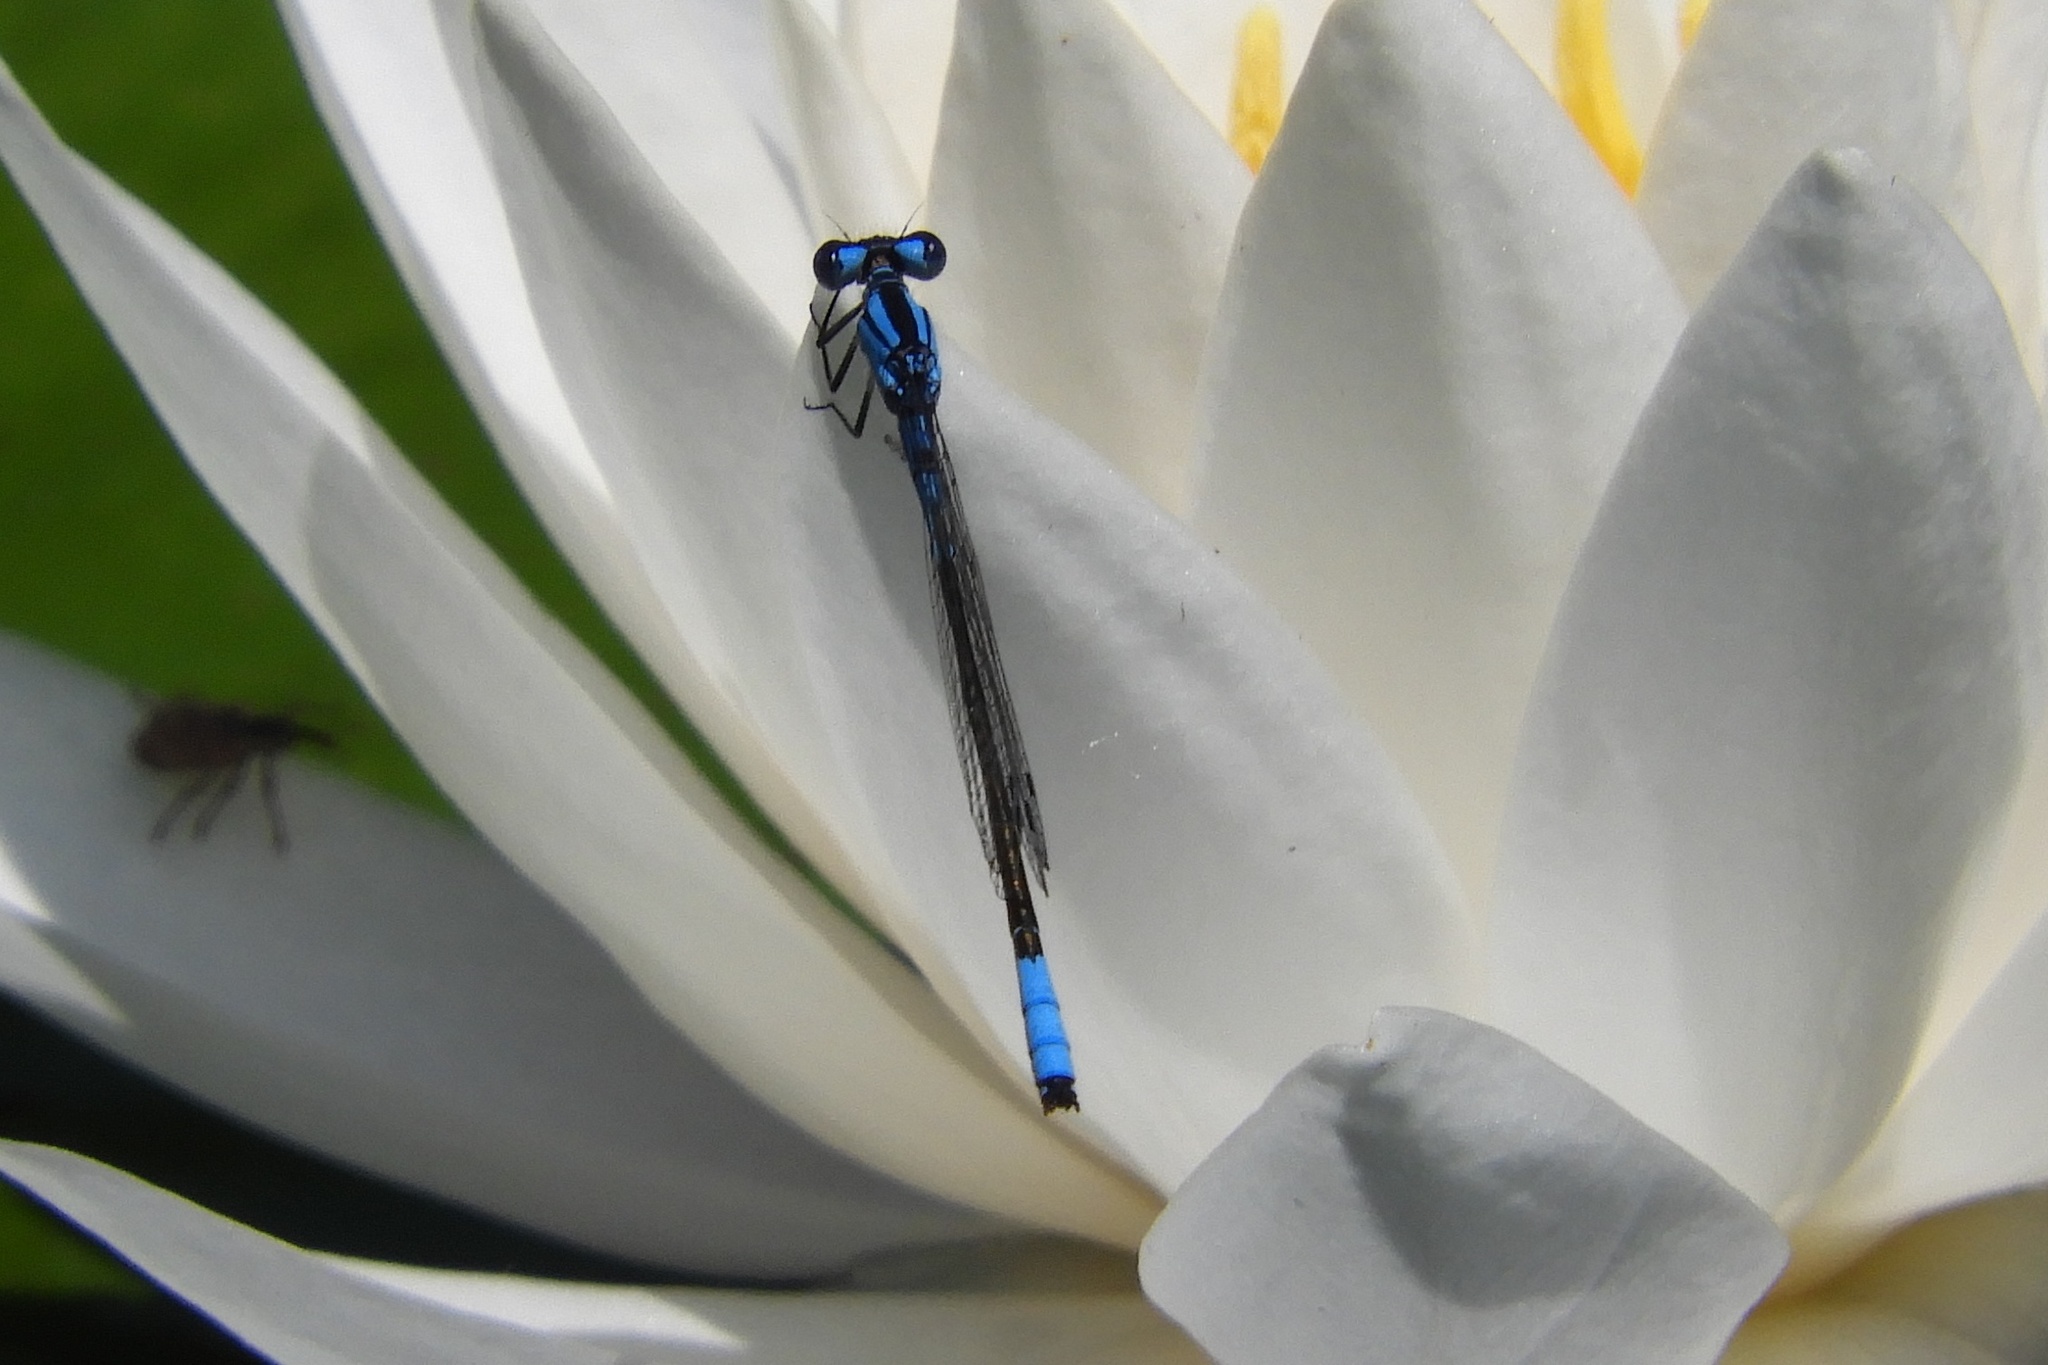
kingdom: Animalia
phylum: Arthropoda
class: Insecta
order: Odonata
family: Coenagrionidae
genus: Enallagma
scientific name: Enallagma aspersum
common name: Azure bluet
